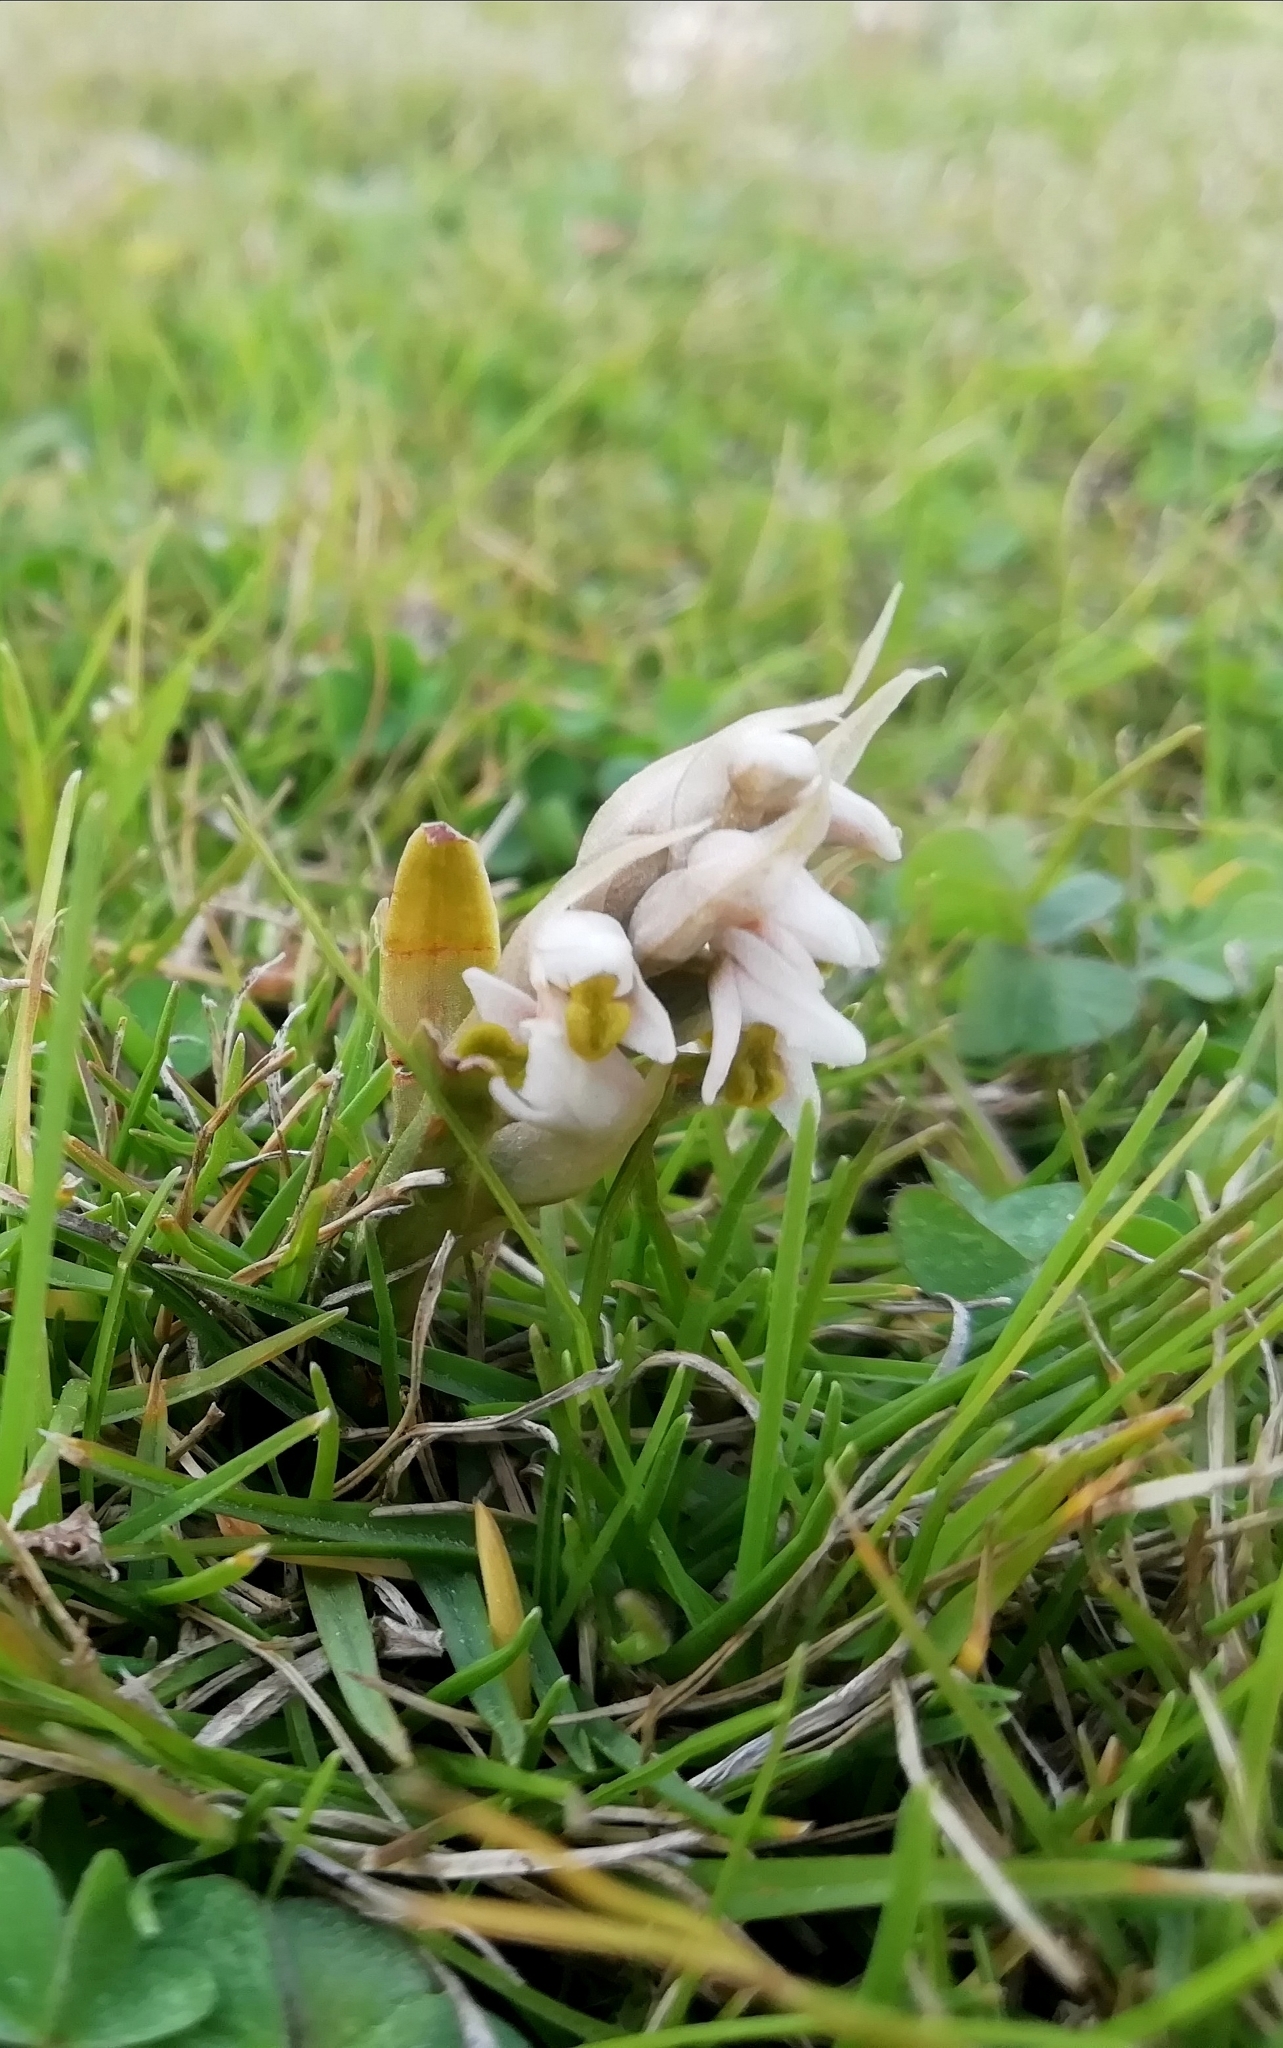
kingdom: Plantae
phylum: Tracheophyta
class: Liliopsida
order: Asparagales
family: Orchidaceae
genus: Zeuxine
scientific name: Zeuxine strateumatica
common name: Soldier's orchid
